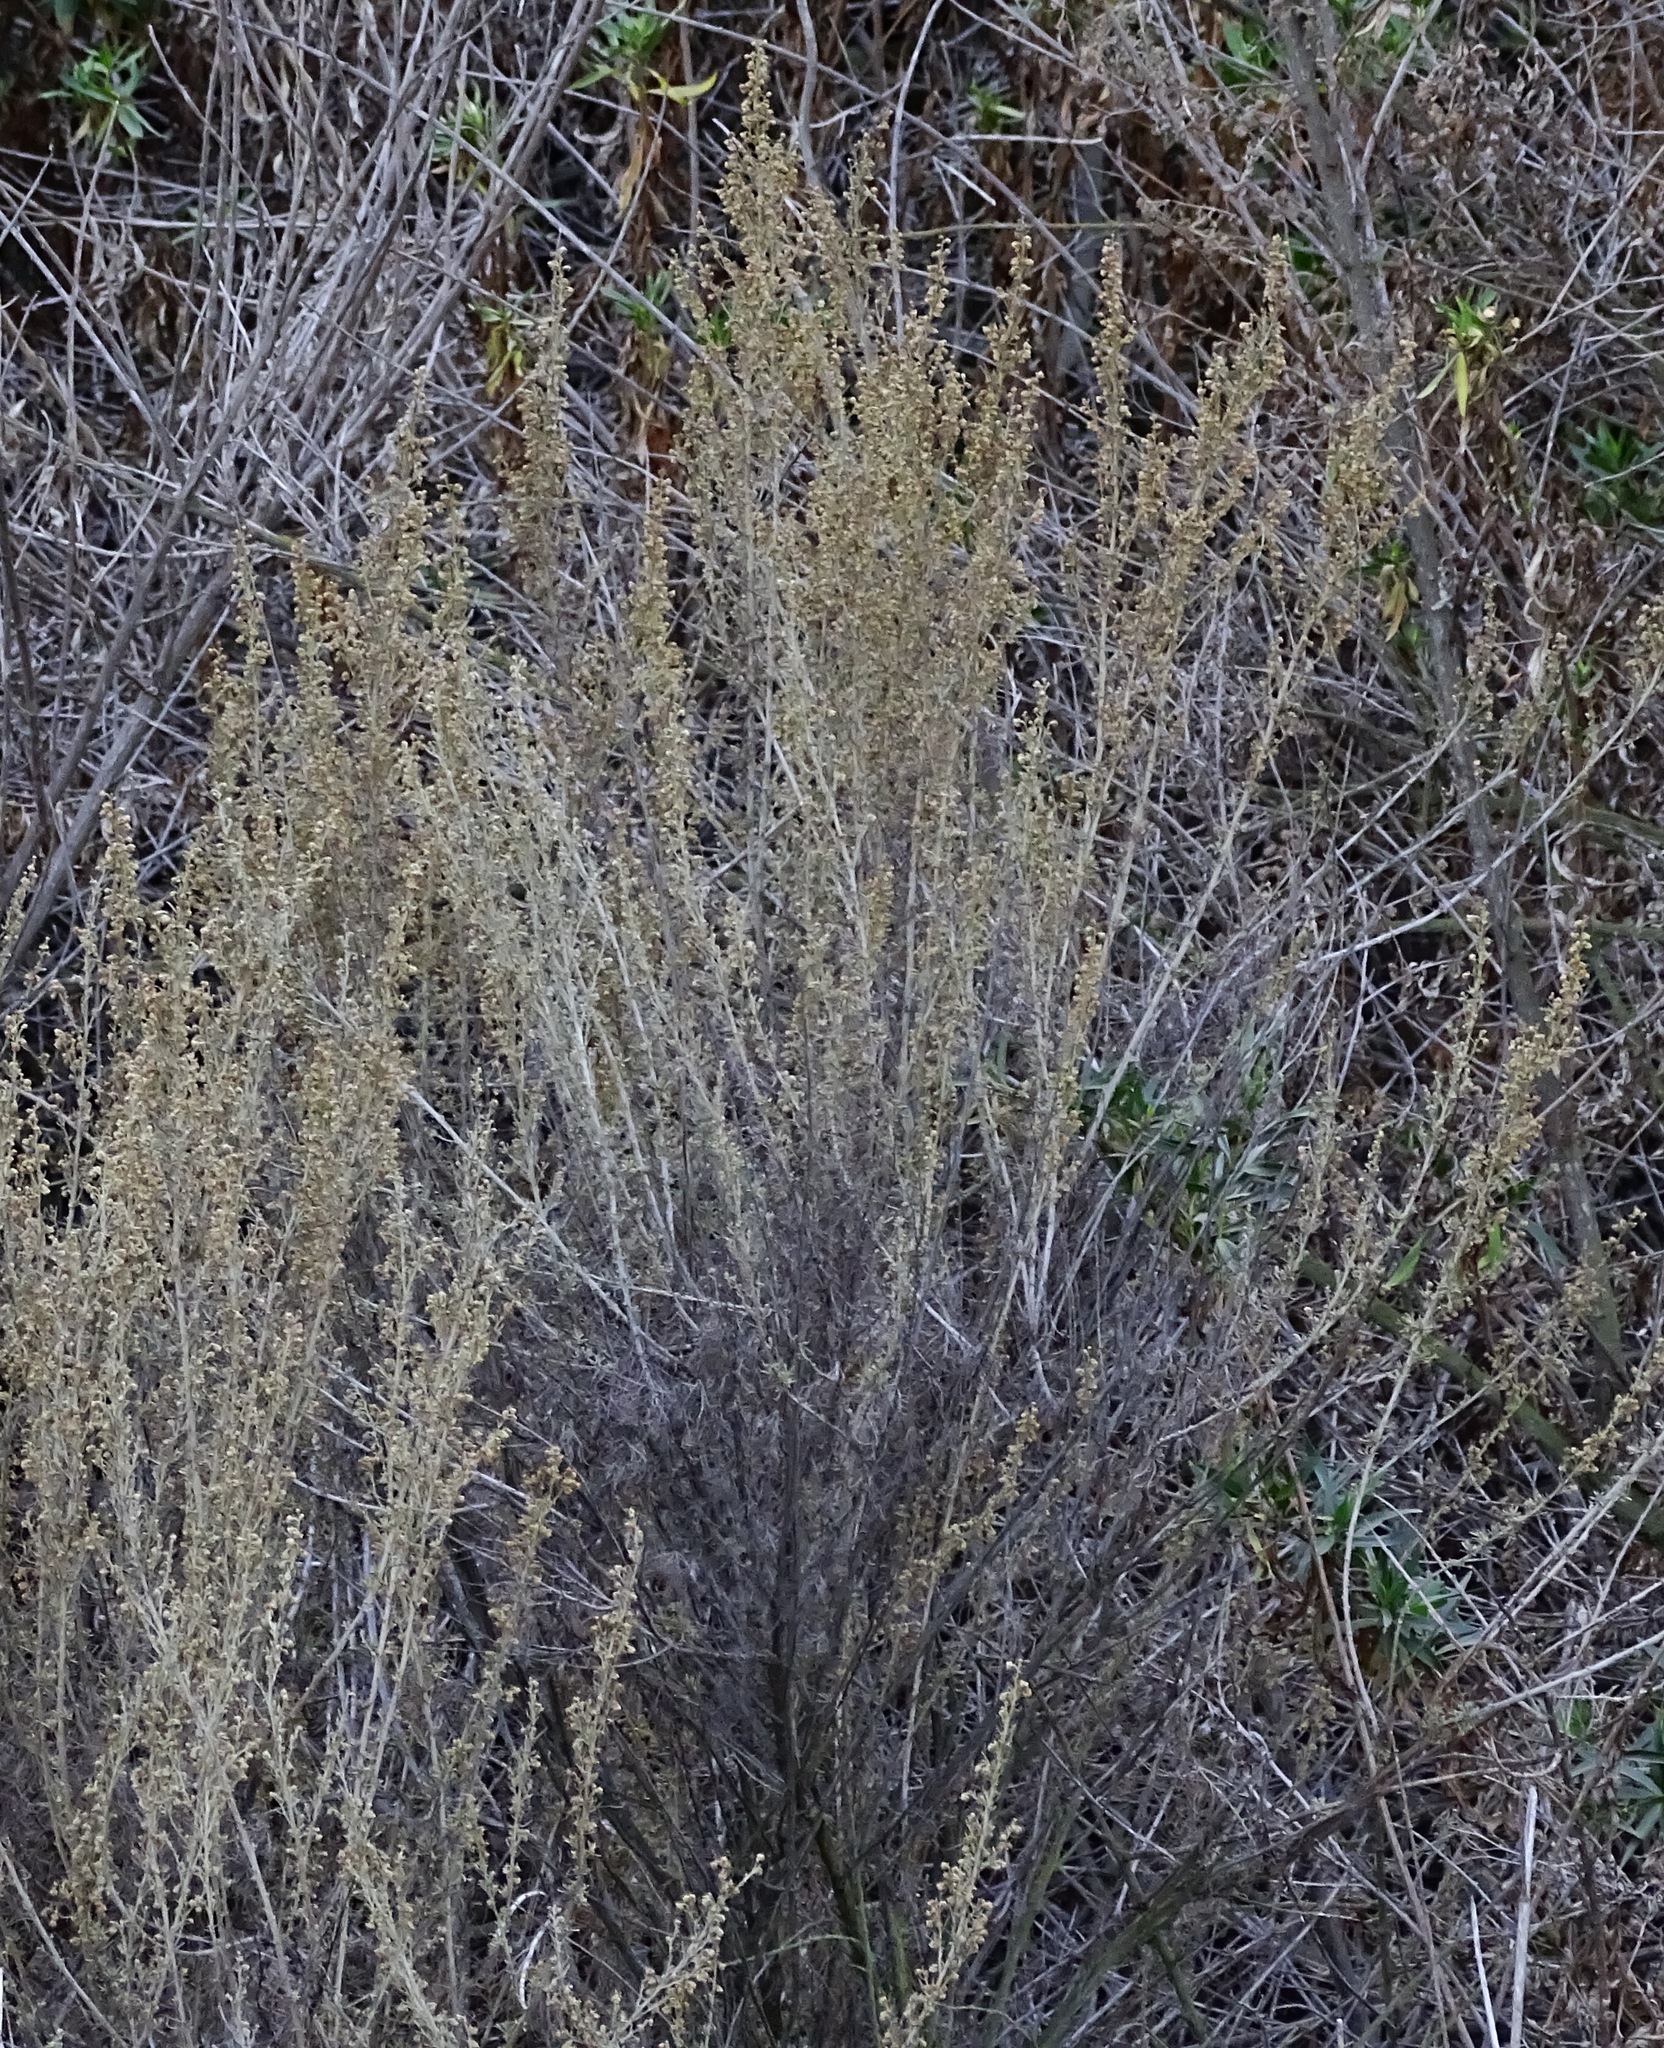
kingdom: Plantae
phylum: Tracheophyta
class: Magnoliopsida
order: Asterales
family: Asteraceae
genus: Artemisia
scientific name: Artemisia californica
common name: California sagebrush
